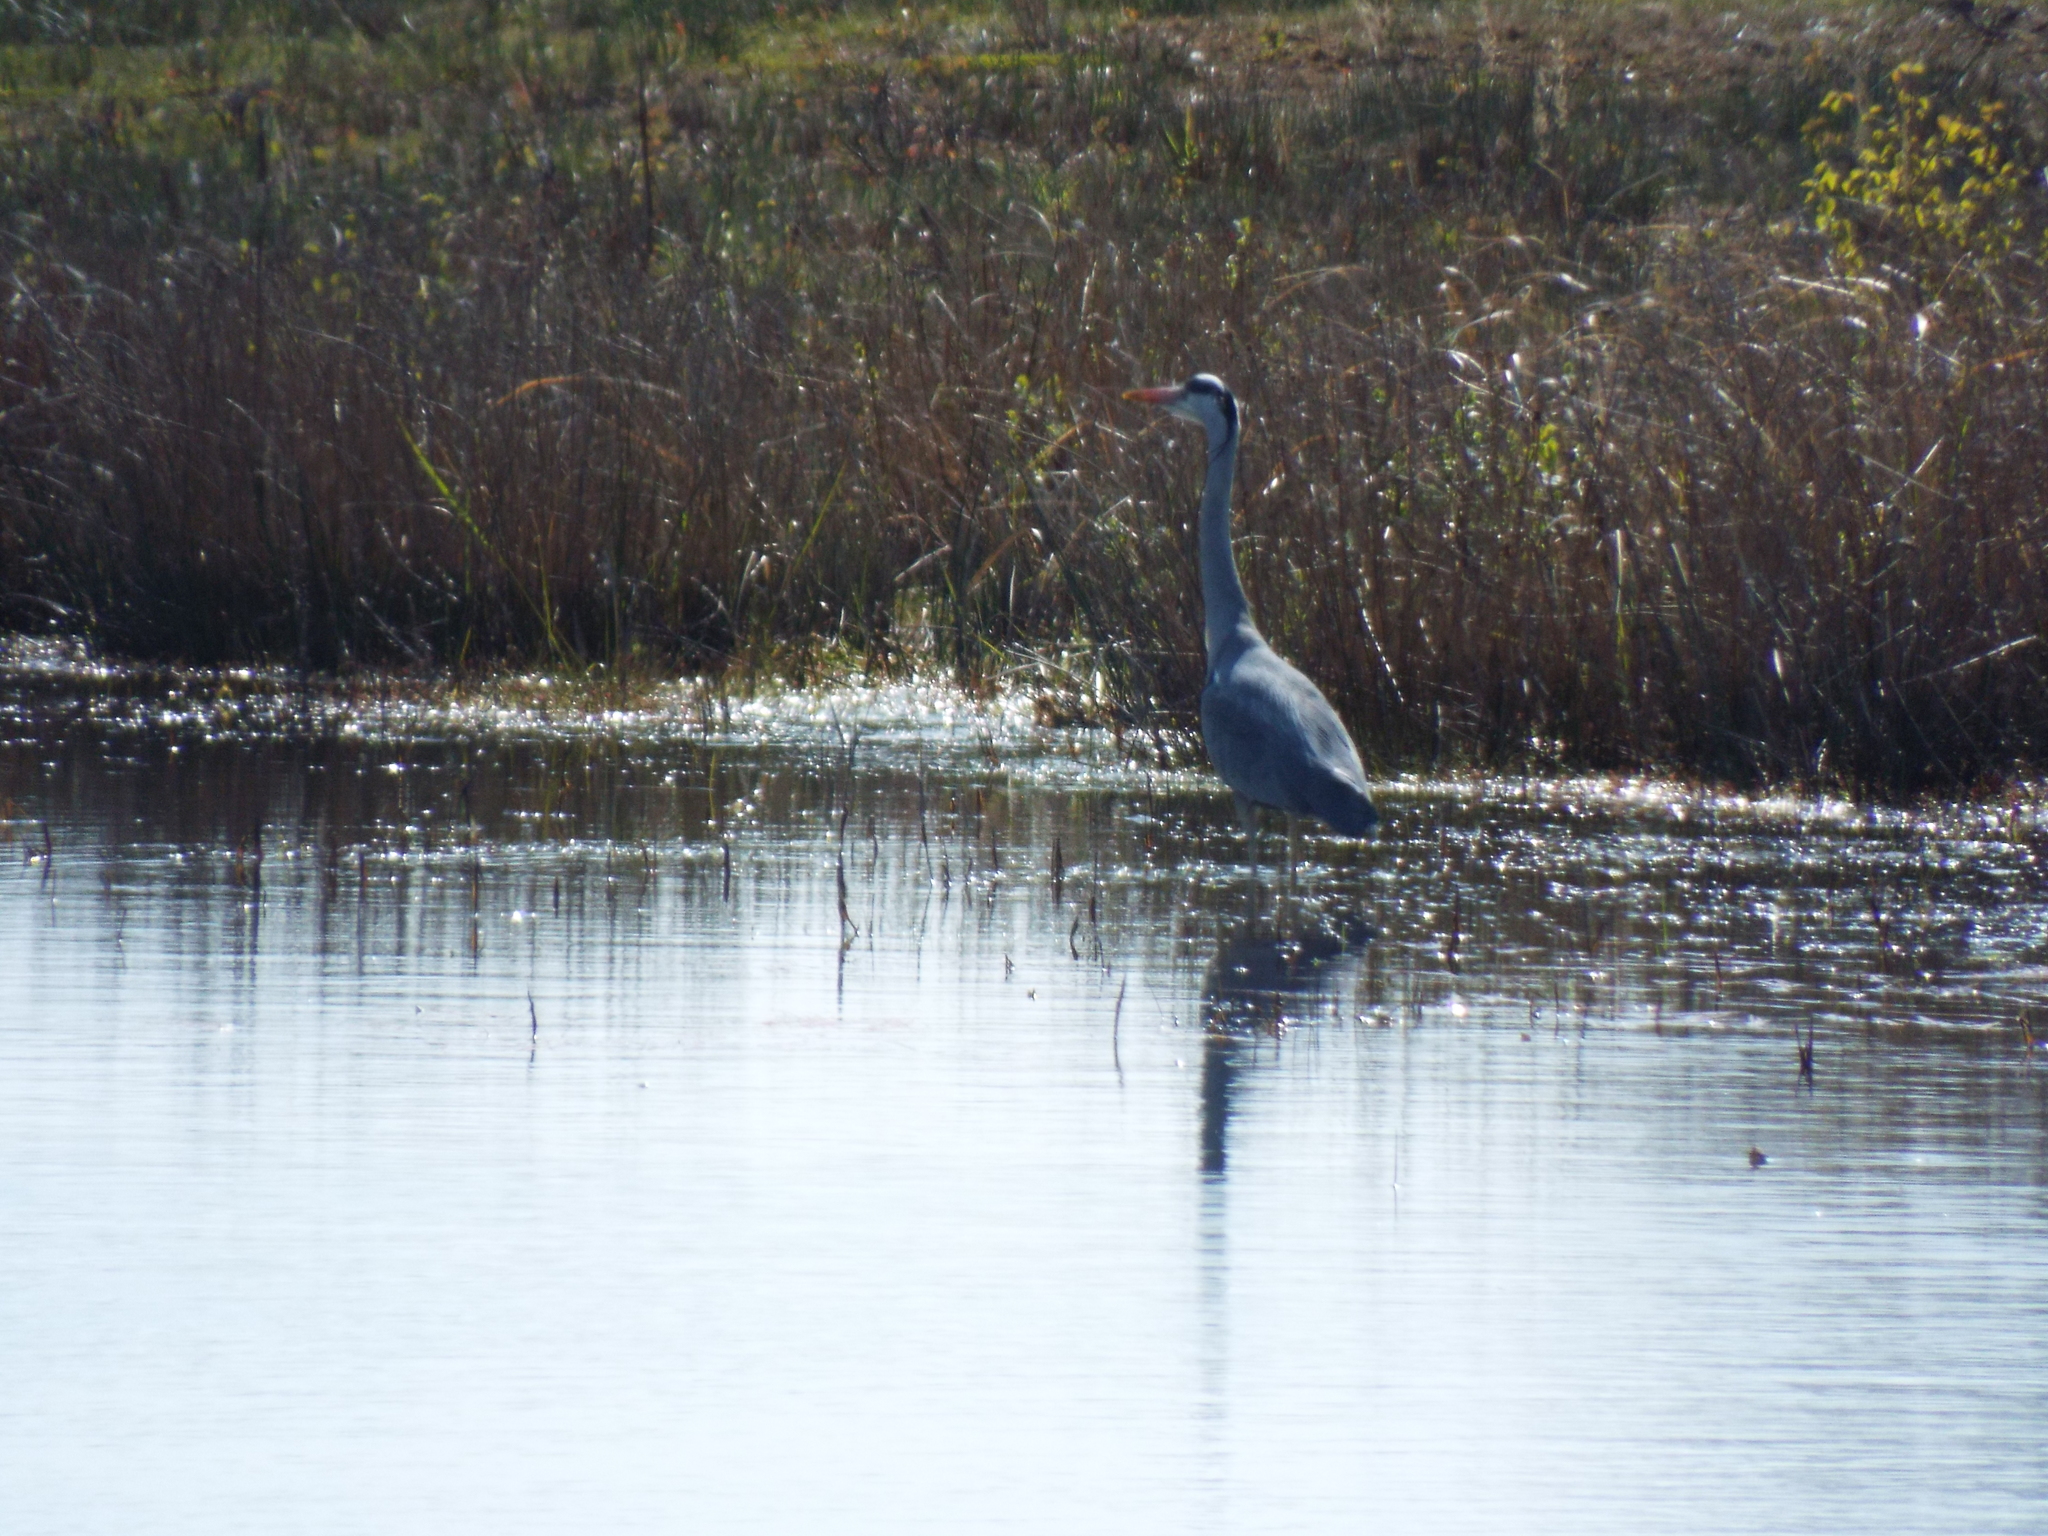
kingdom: Animalia
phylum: Chordata
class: Aves
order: Pelecaniformes
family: Ardeidae
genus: Ardea
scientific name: Ardea cinerea
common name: Grey heron
